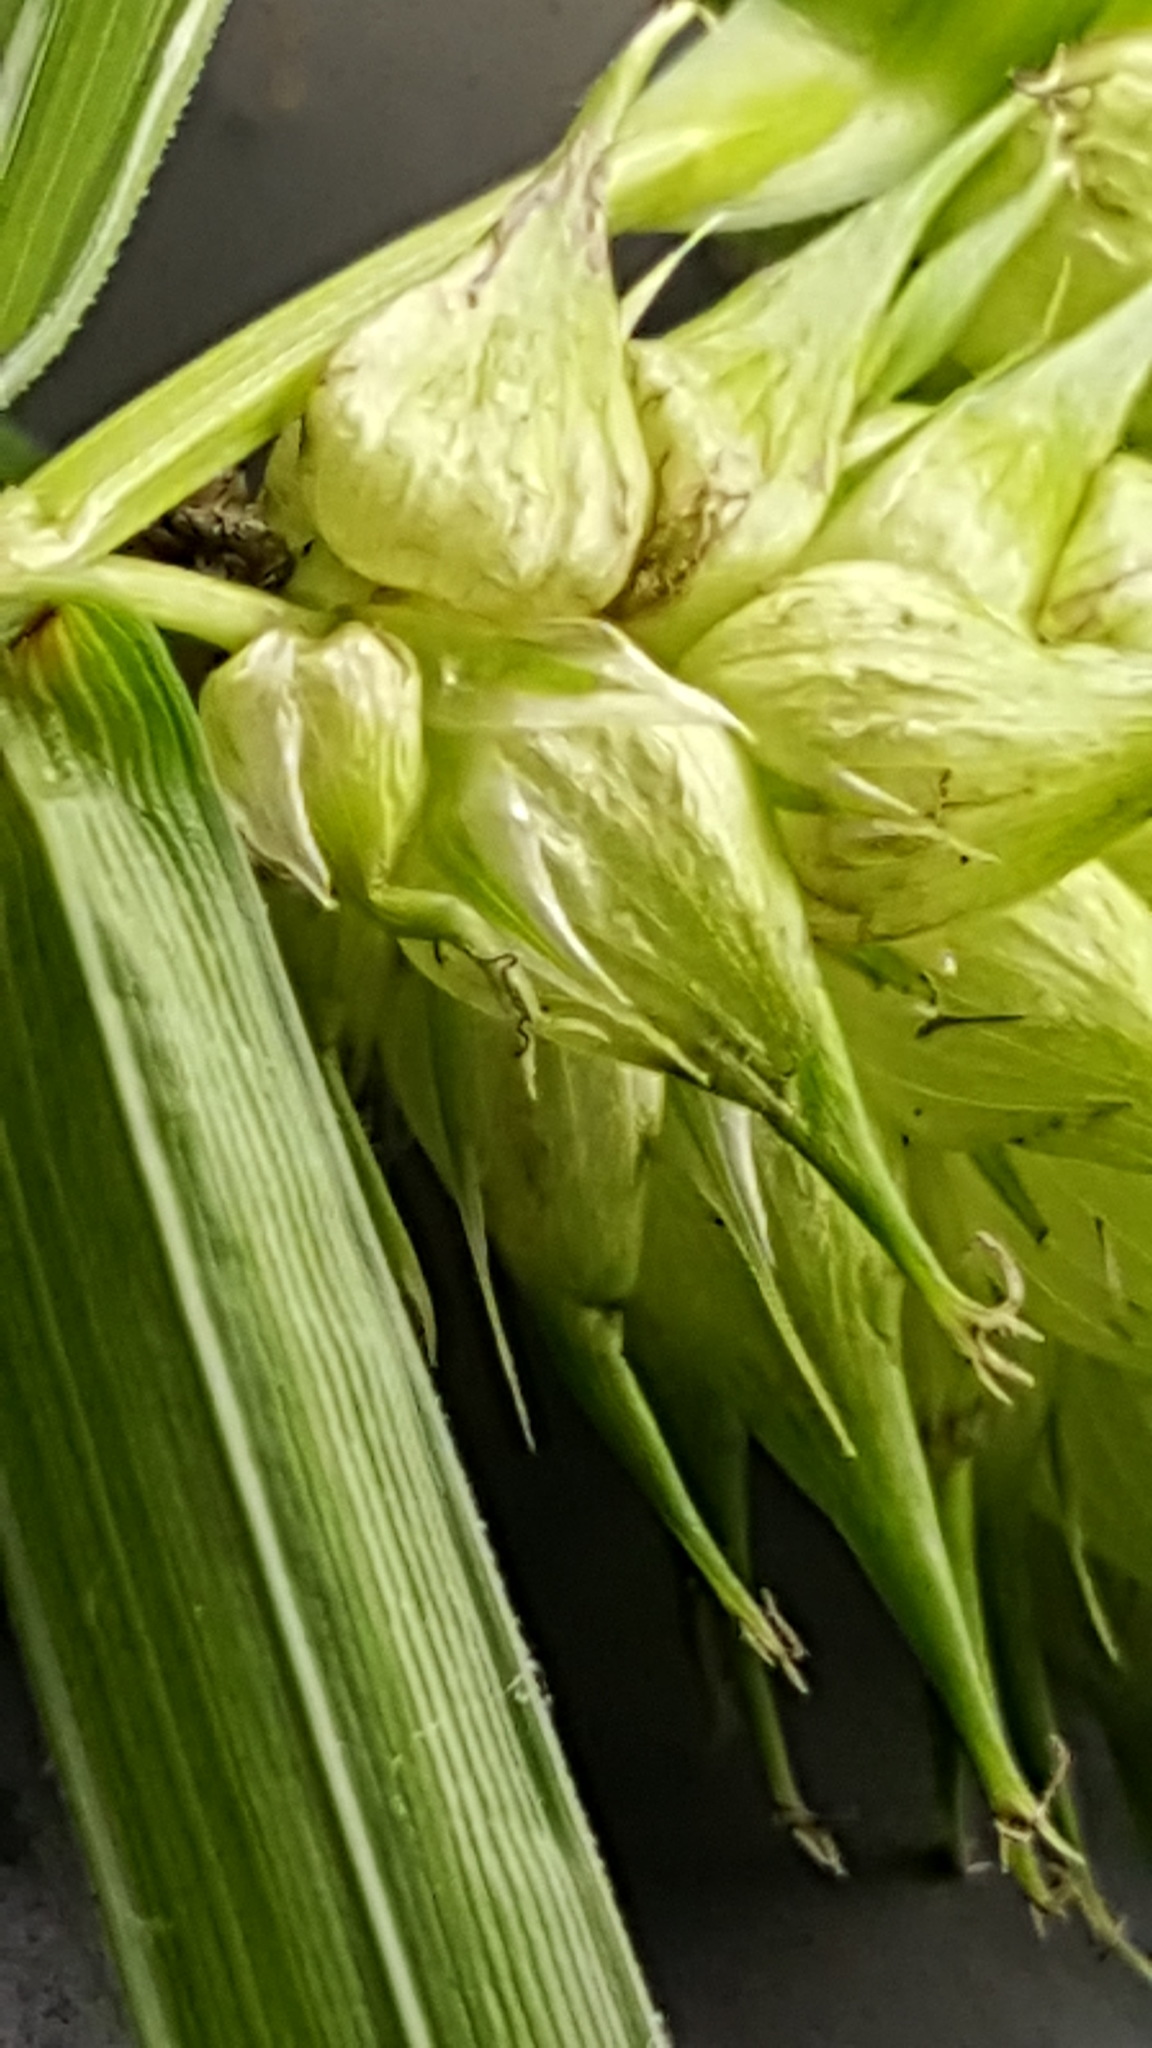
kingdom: Plantae
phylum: Tracheophyta
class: Liliopsida
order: Poales
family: Cyperaceae
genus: Carex
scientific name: Carex lupulina
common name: Hop sedge
